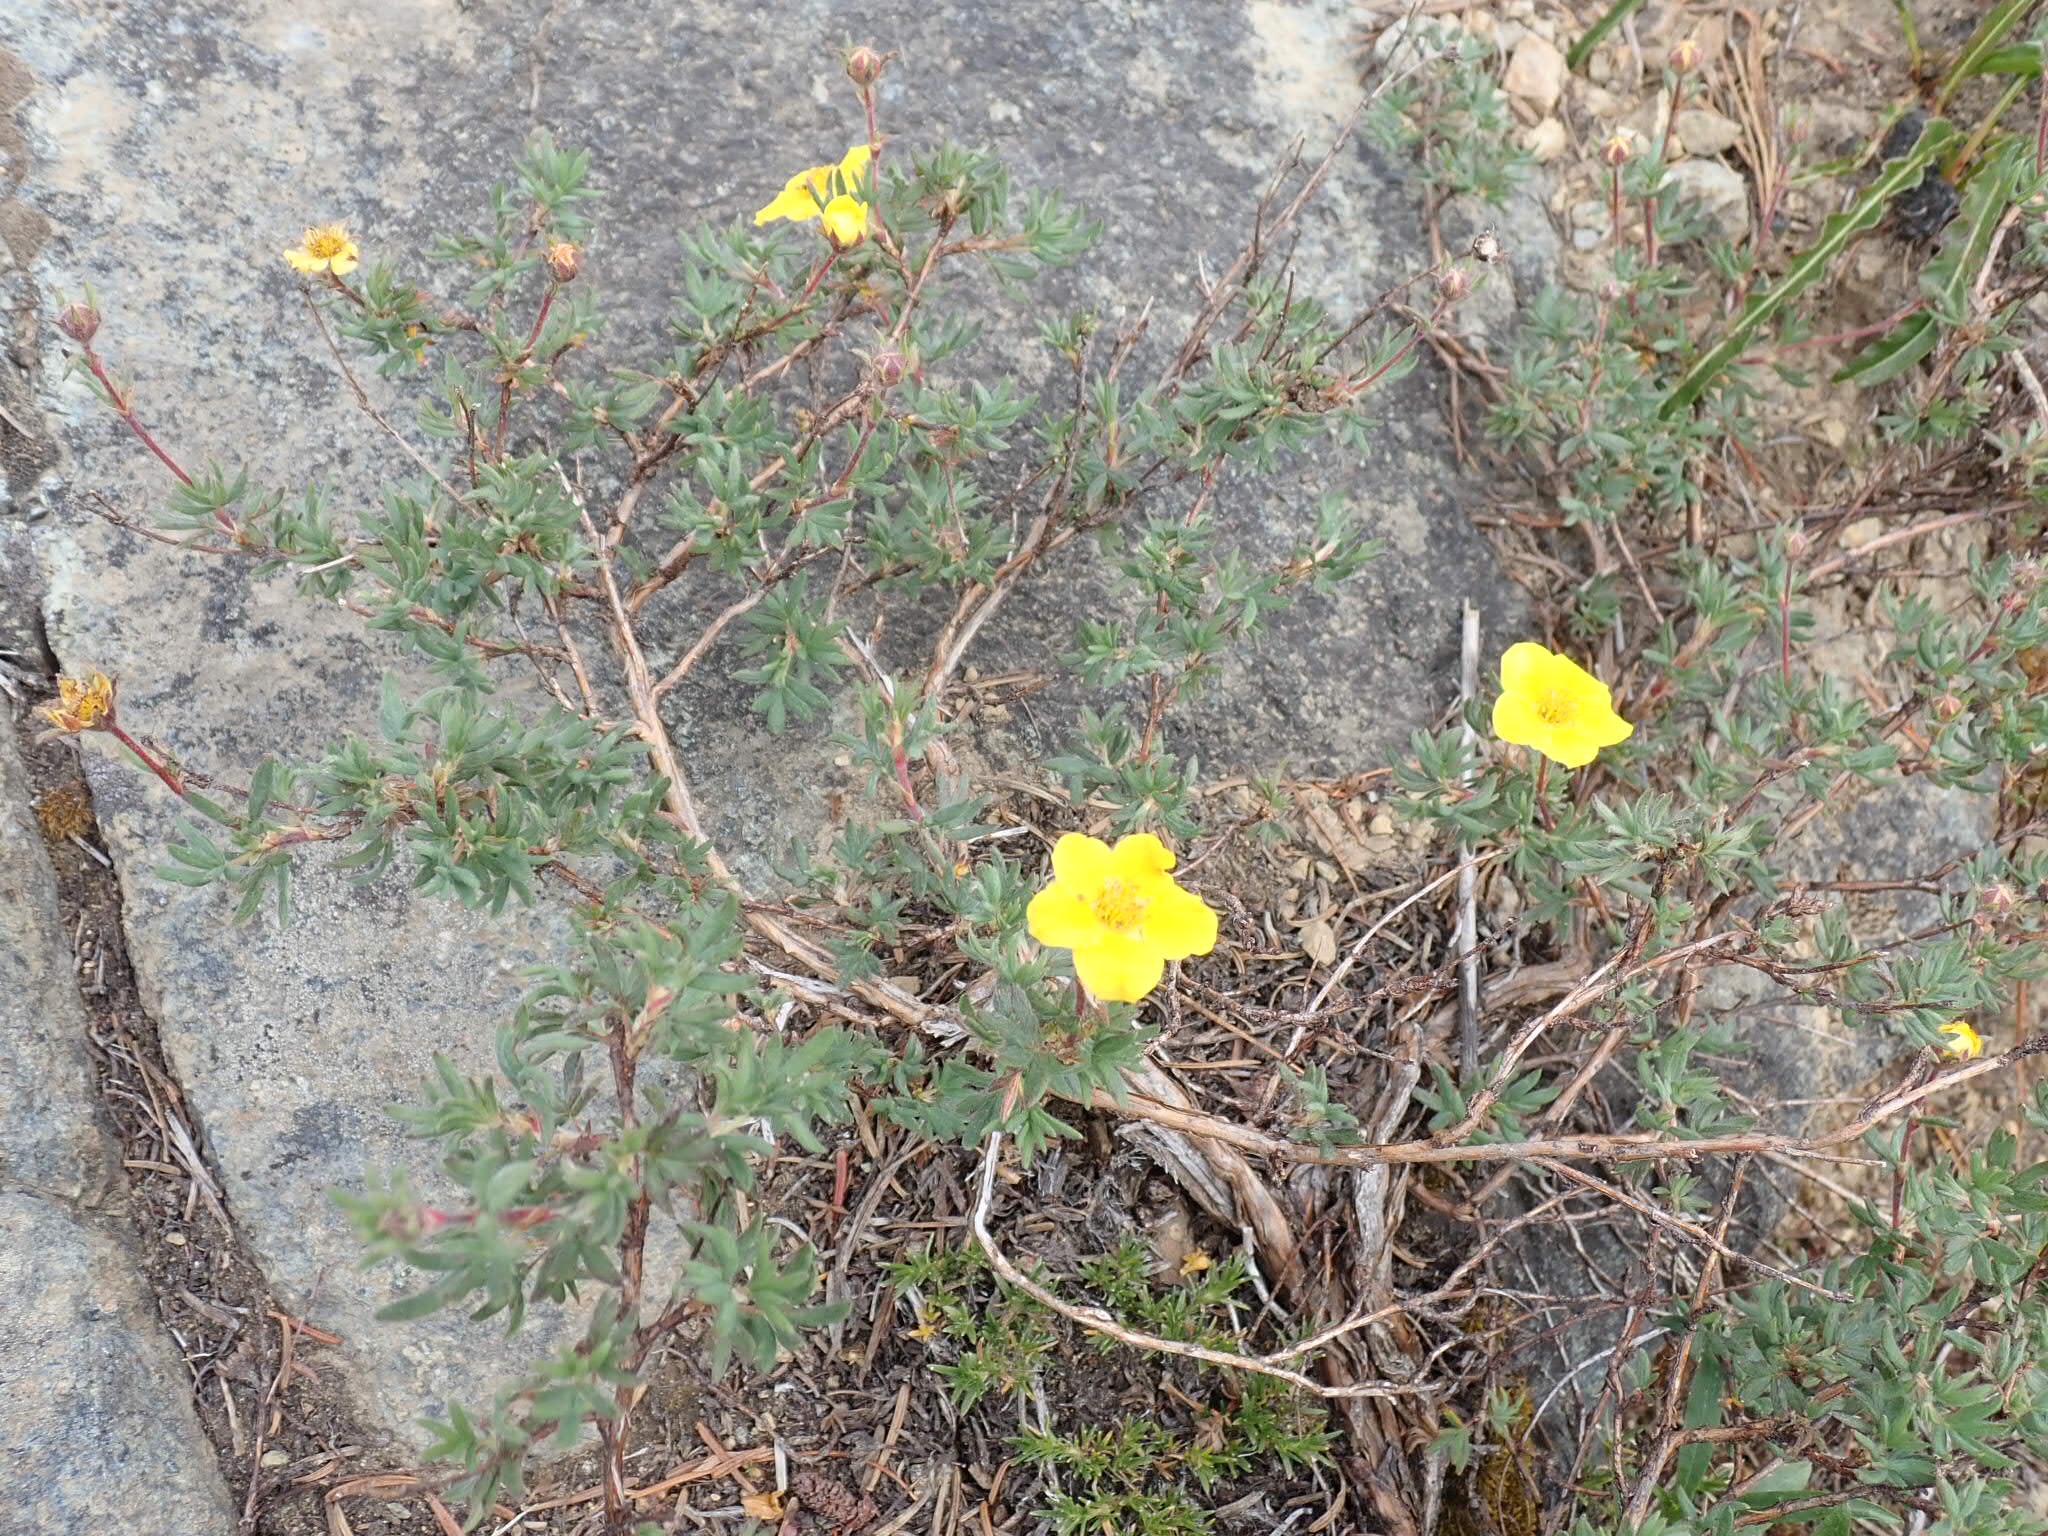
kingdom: Plantae
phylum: Tracheophyta
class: Magnoliopsida
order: Rosales
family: Rosaceae
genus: Dasiphora
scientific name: Dasiphora fruticosa
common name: Shrubby cinquefoil
